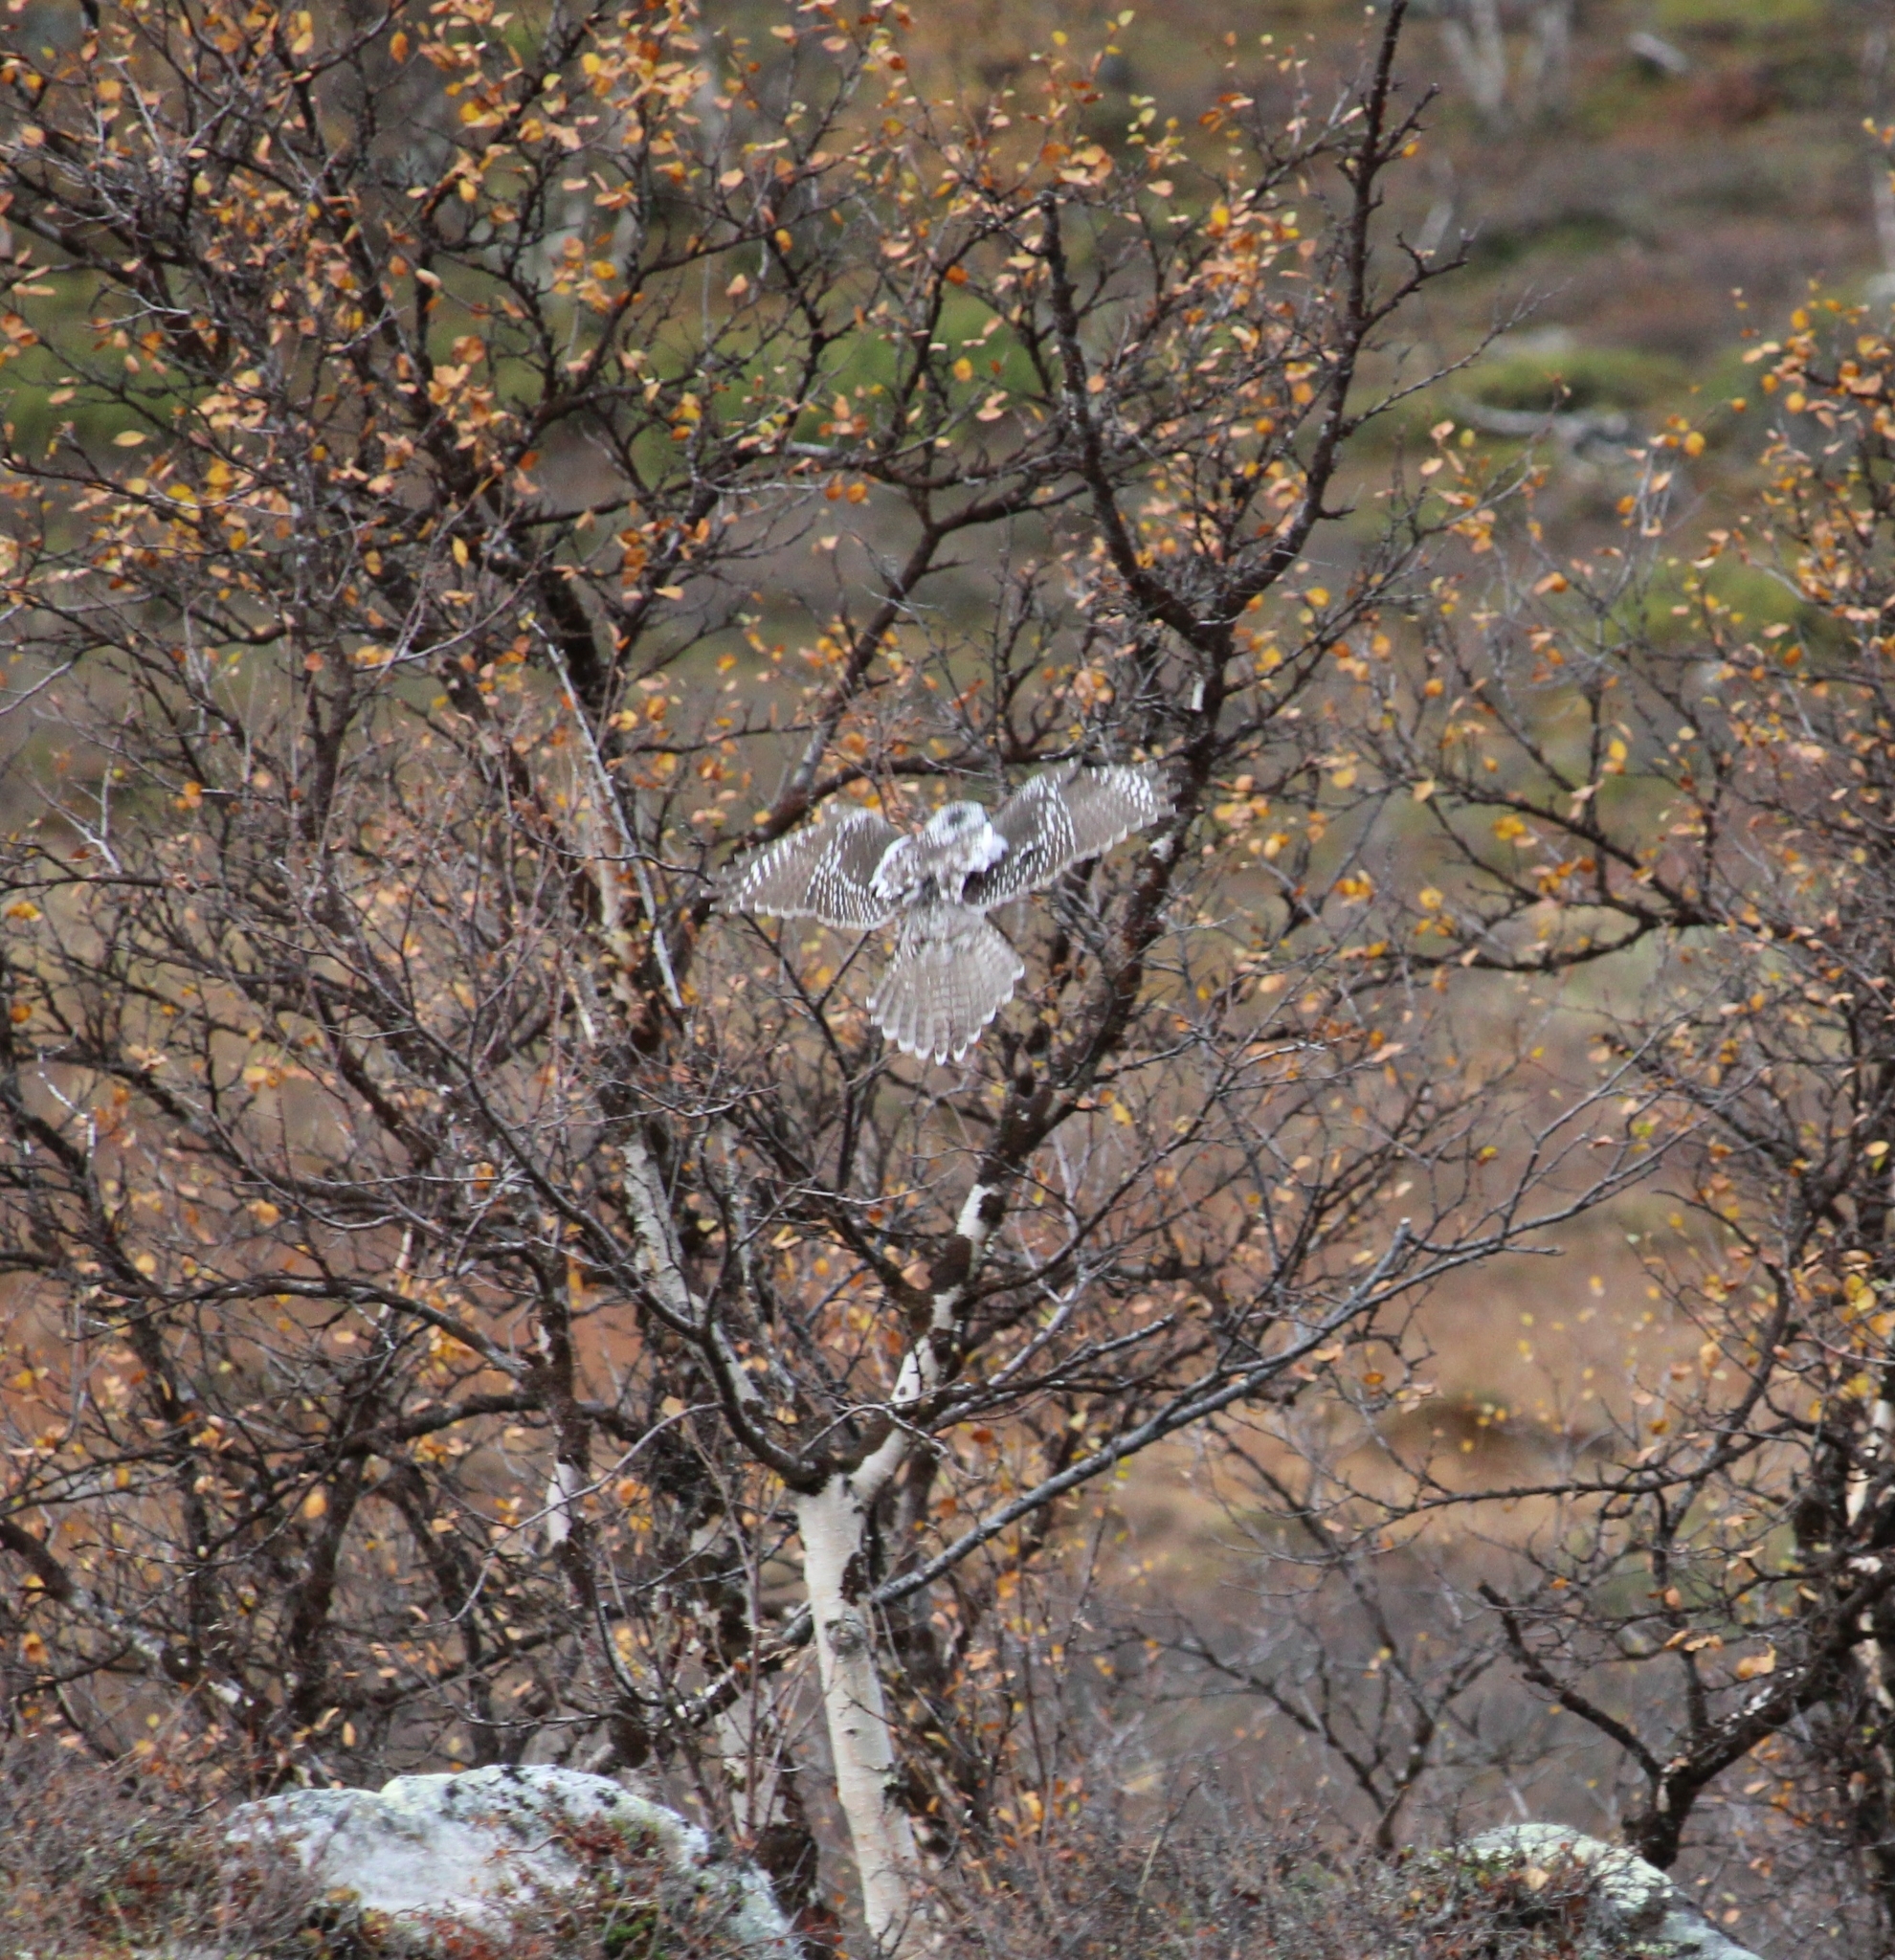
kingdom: Animalia
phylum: Chordata
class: Aves
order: Strigiformes
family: Strigidae
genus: Surnia
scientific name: Surnia ulula
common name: Northern hawk-owl
